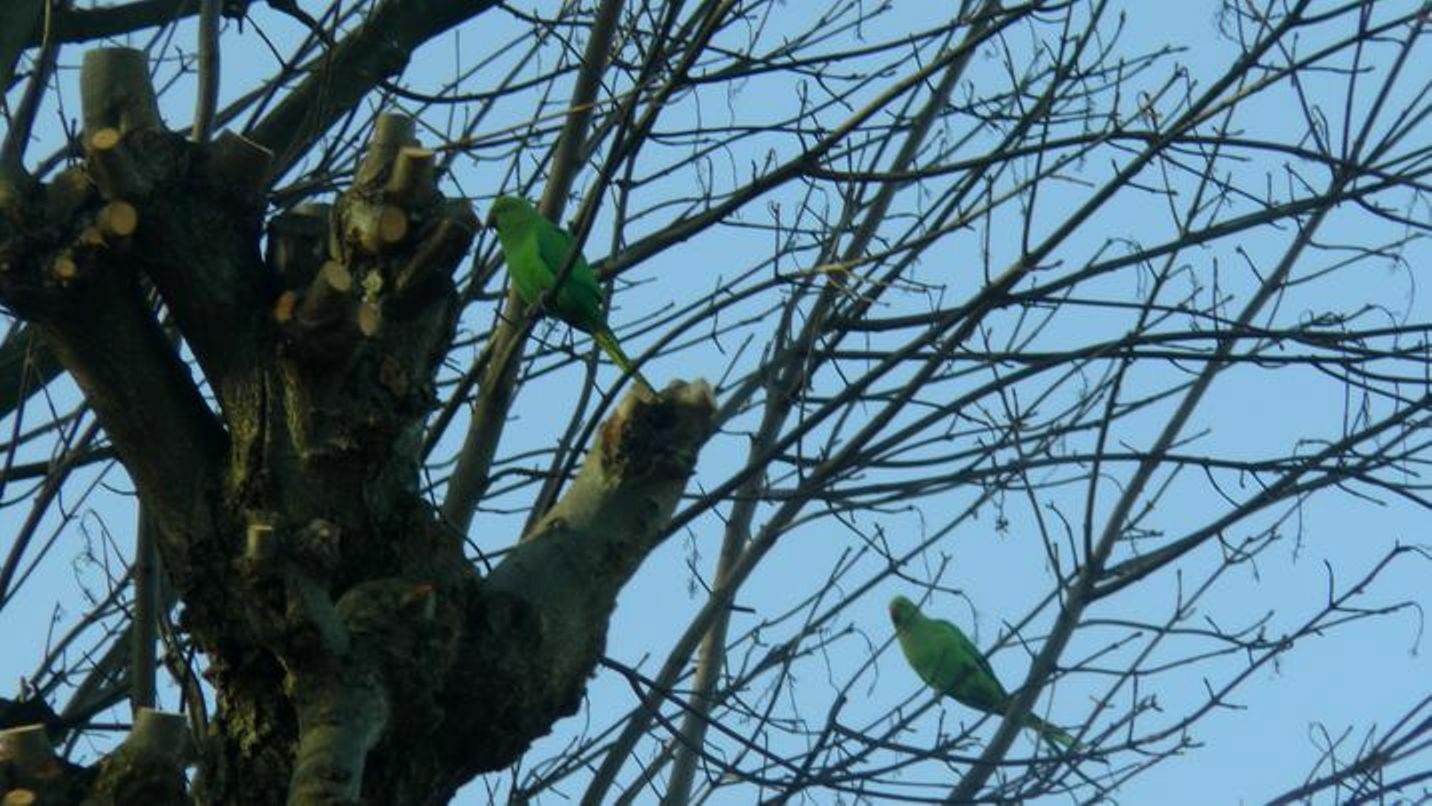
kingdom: Animalia
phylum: Chordata
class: Aves
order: Psittaciformes
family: Psittacidae
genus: Psittacula
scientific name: Psittacula krameri
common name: Rose-ringed parakeet
